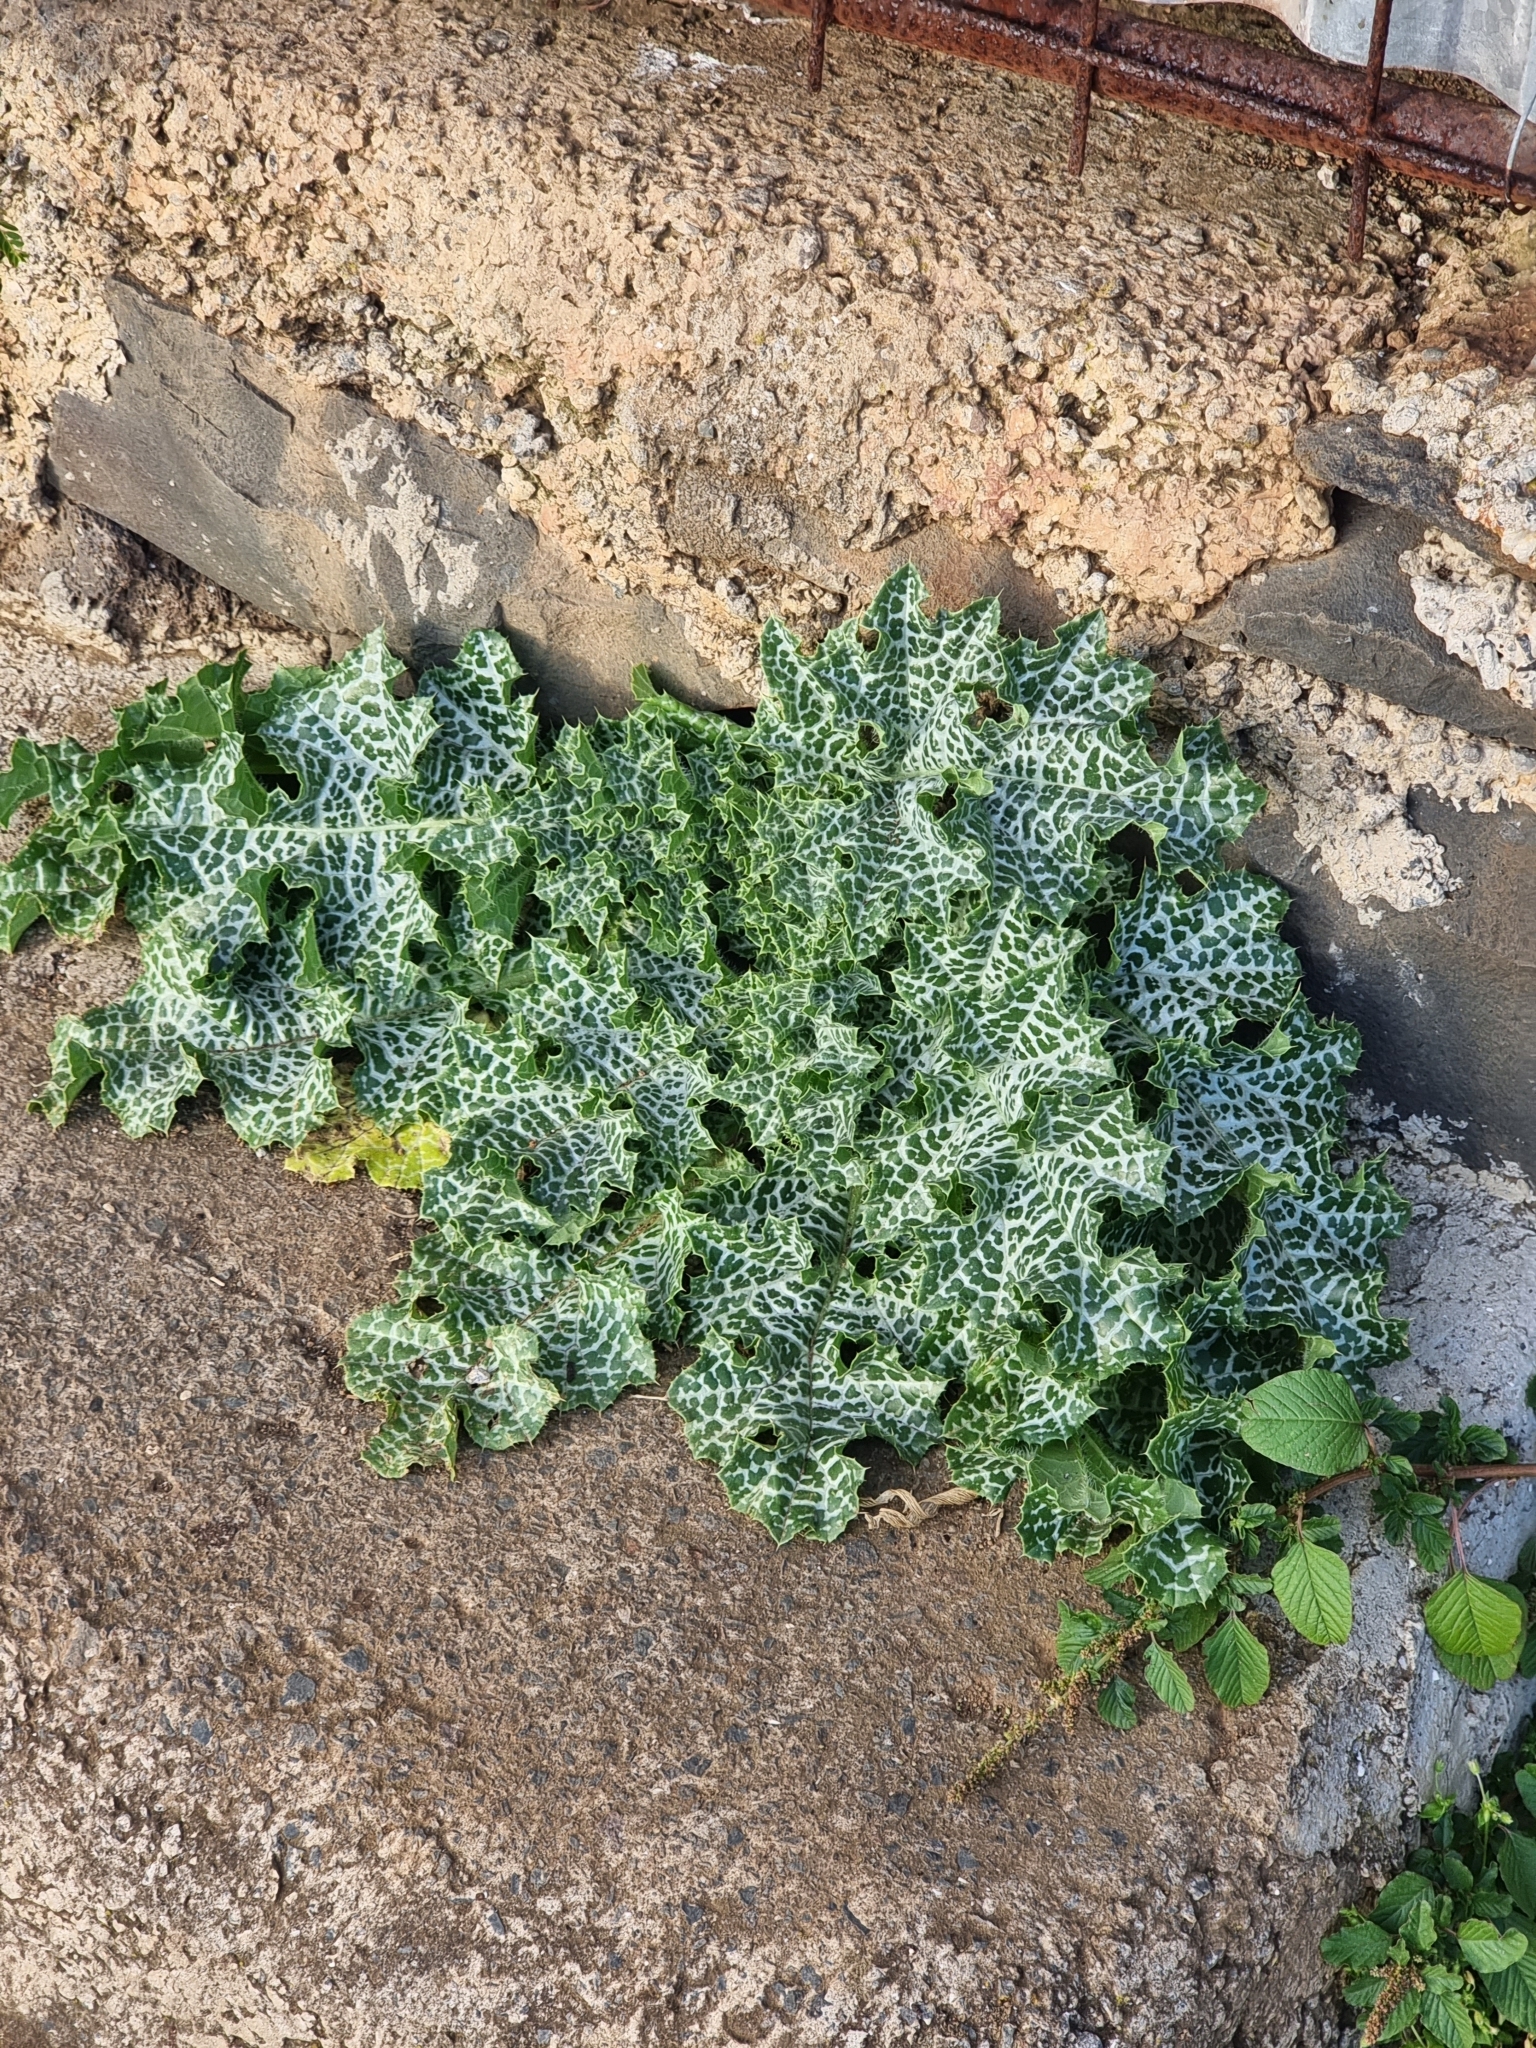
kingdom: Plantae
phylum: Tracheophyta
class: Magnoliopsida
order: Asterales
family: Asteraceae
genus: Silybum
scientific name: Silybum marianum
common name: Milk thistle
